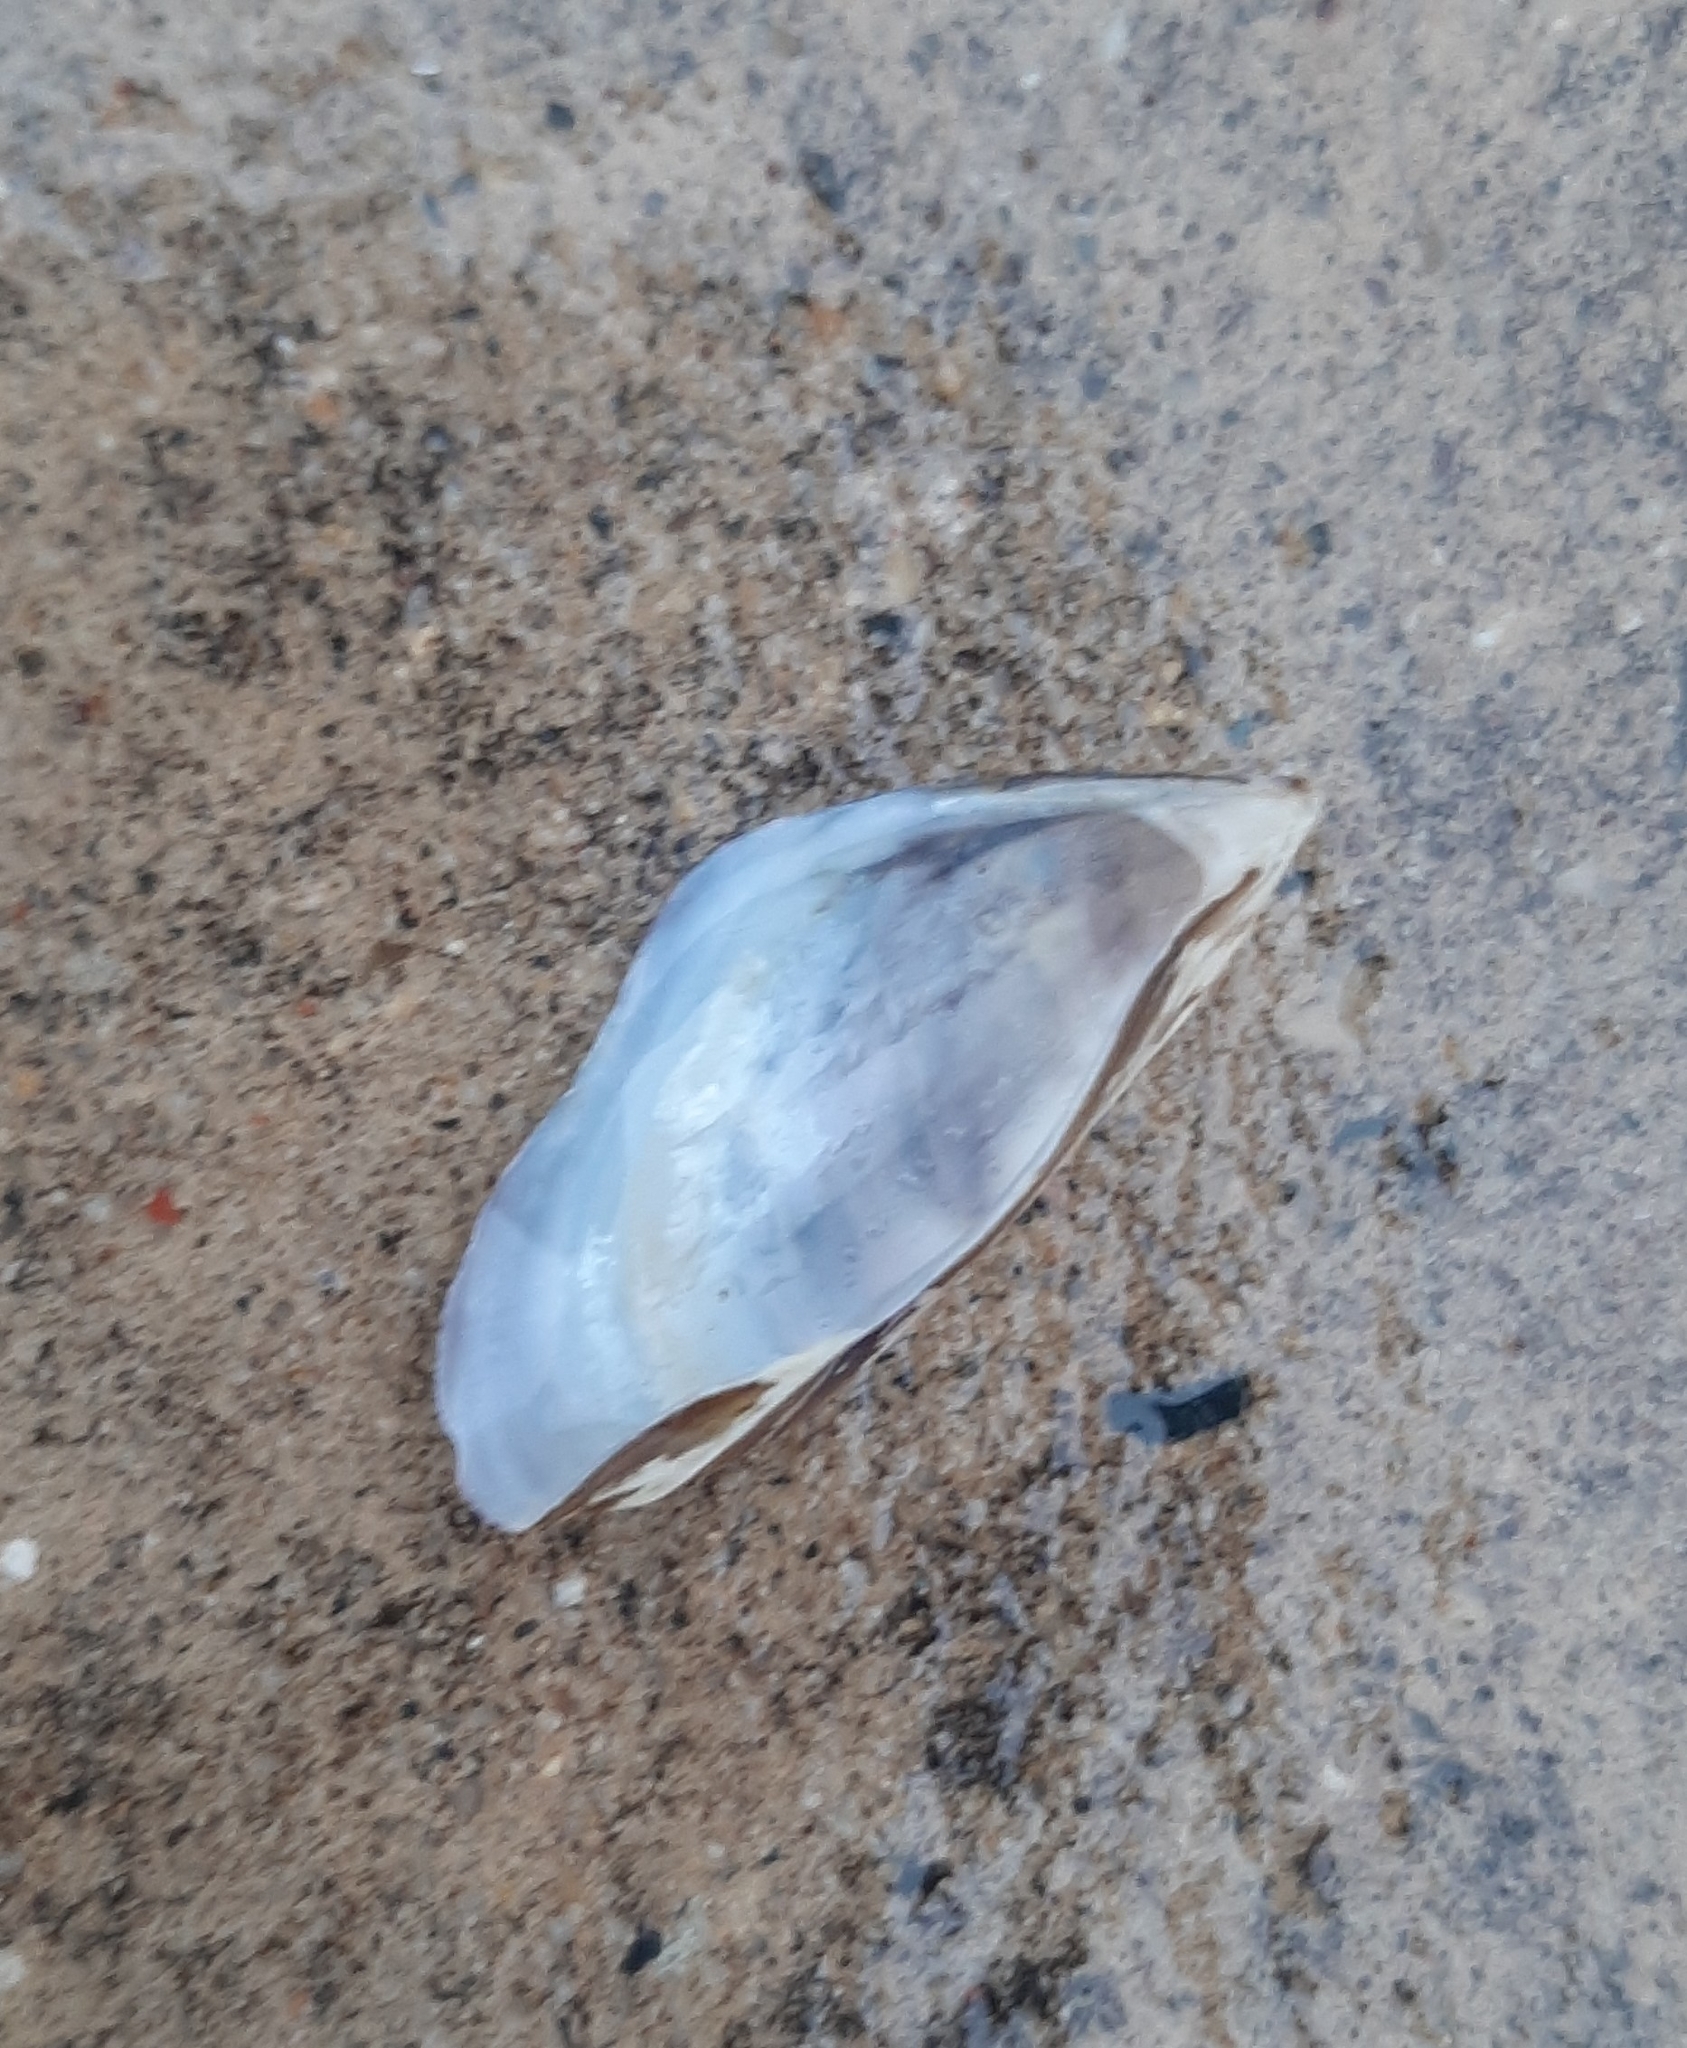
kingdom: Animalia
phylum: Mollusca
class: Bivalvia
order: Myida
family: Dreissenidae
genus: Dreissena
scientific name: Dreissena polymorpha
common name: Zebra mussel
